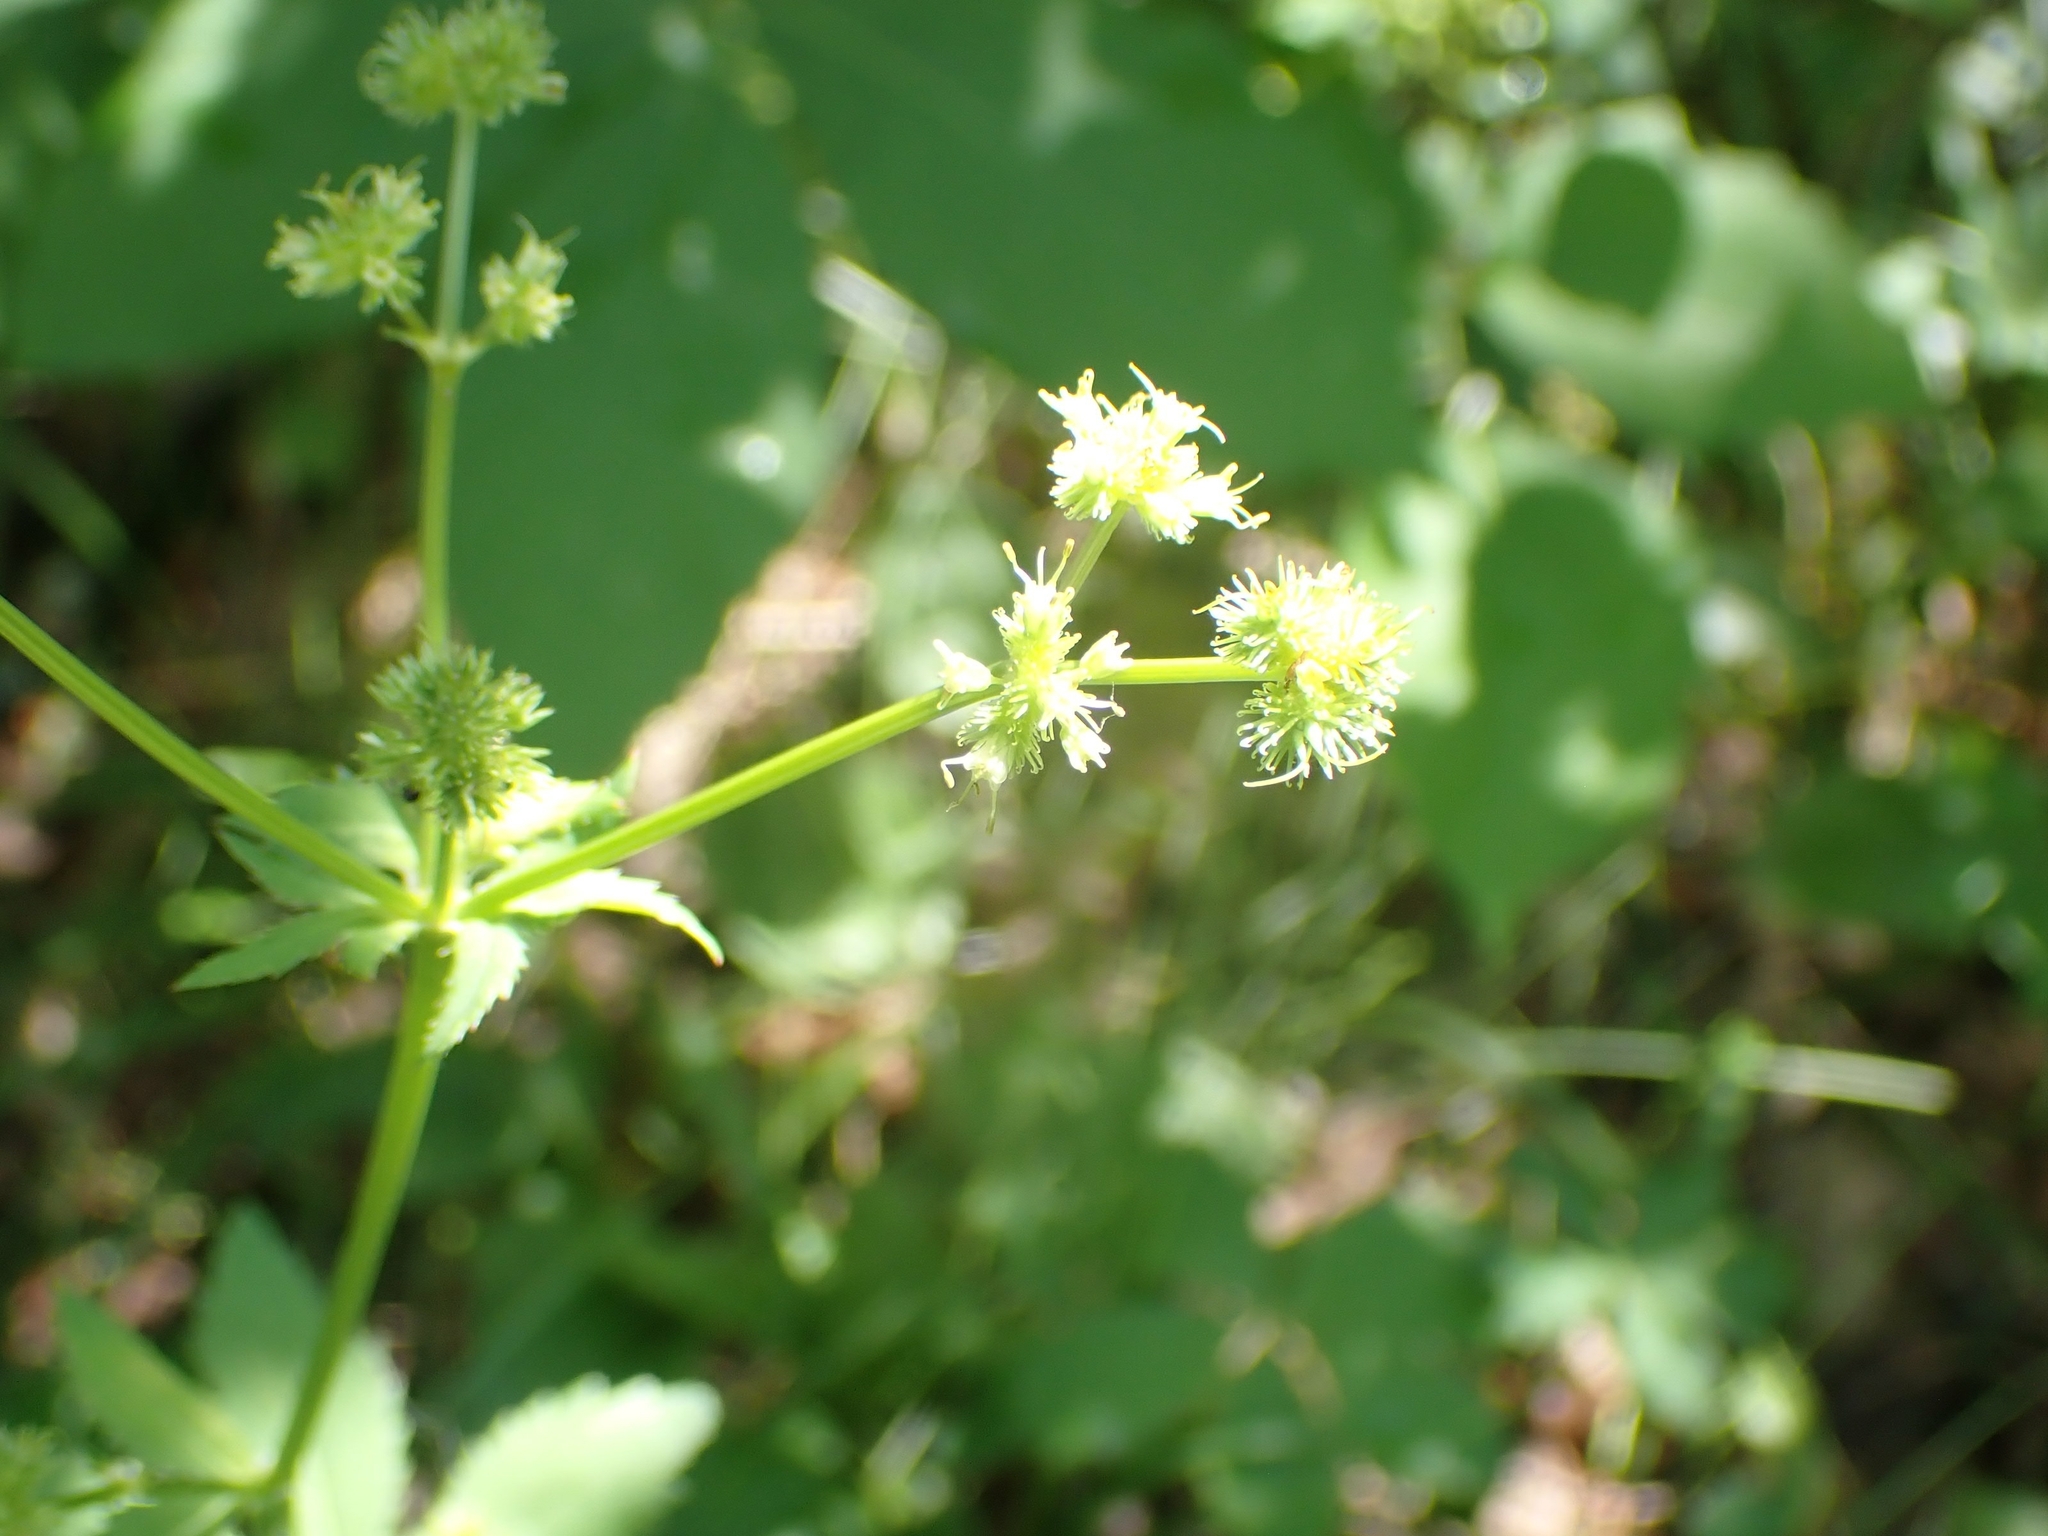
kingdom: Plantae
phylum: Tracheophyta
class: Magnoliopsida
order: Apiales
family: Apiaceae
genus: Sanicula
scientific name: Sanicula marilandica
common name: Black snakeroot
